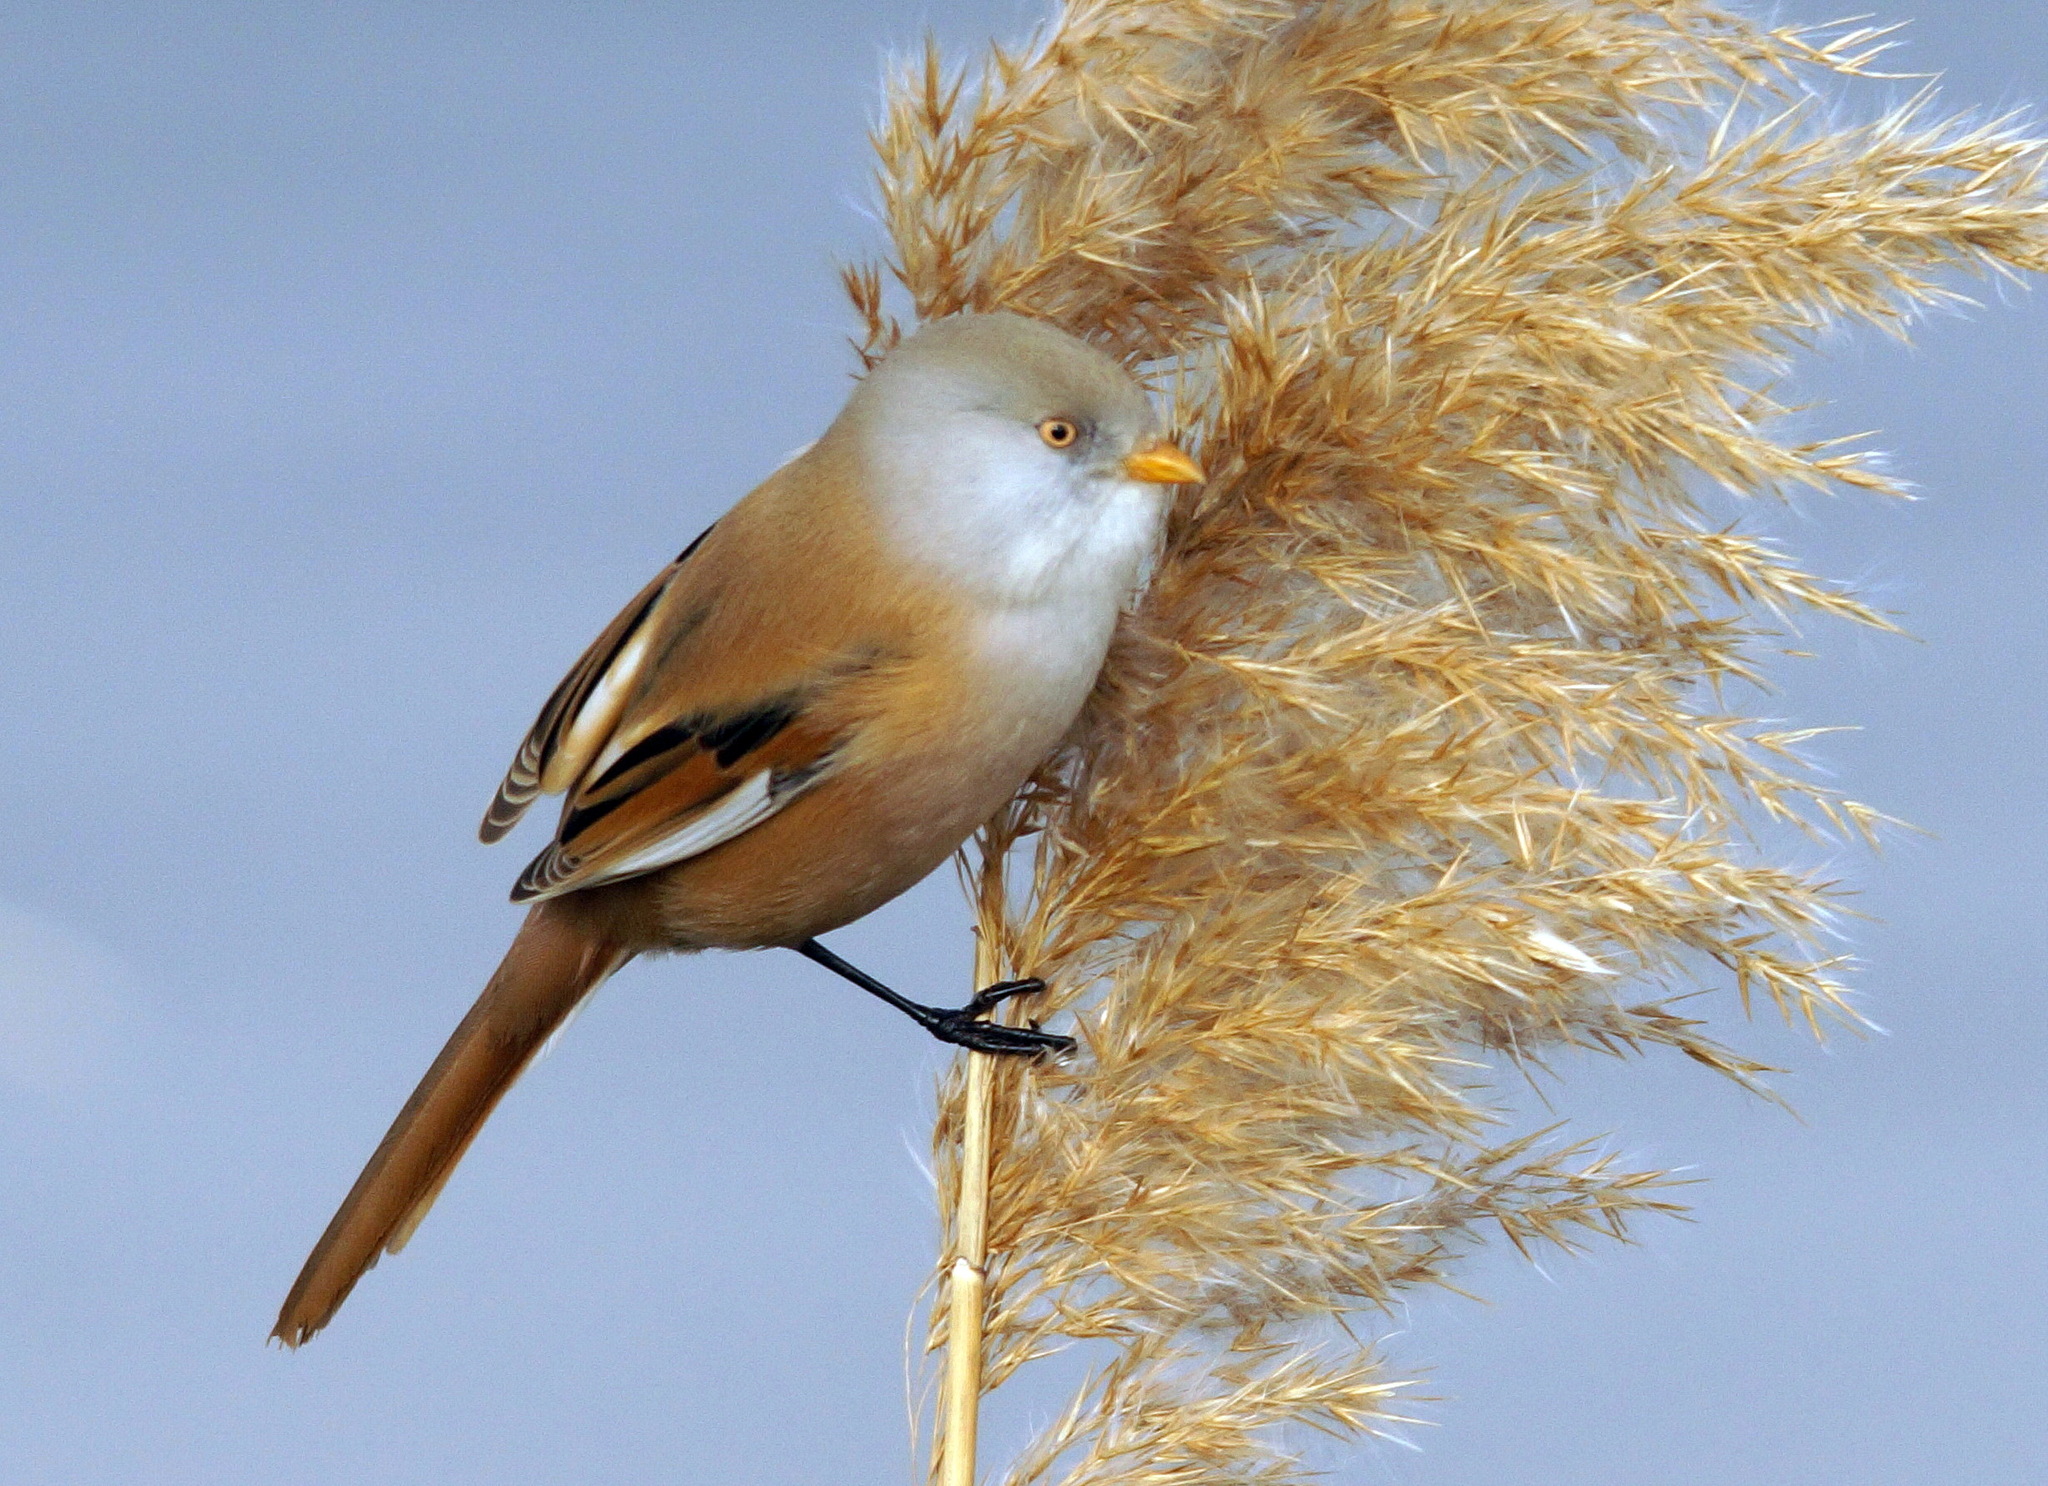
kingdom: Animalia
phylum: Chordata
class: Aves
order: Passeriformes
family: Panuridae
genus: Panurus
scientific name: Panurus biarmicus
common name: Bearded reedling
